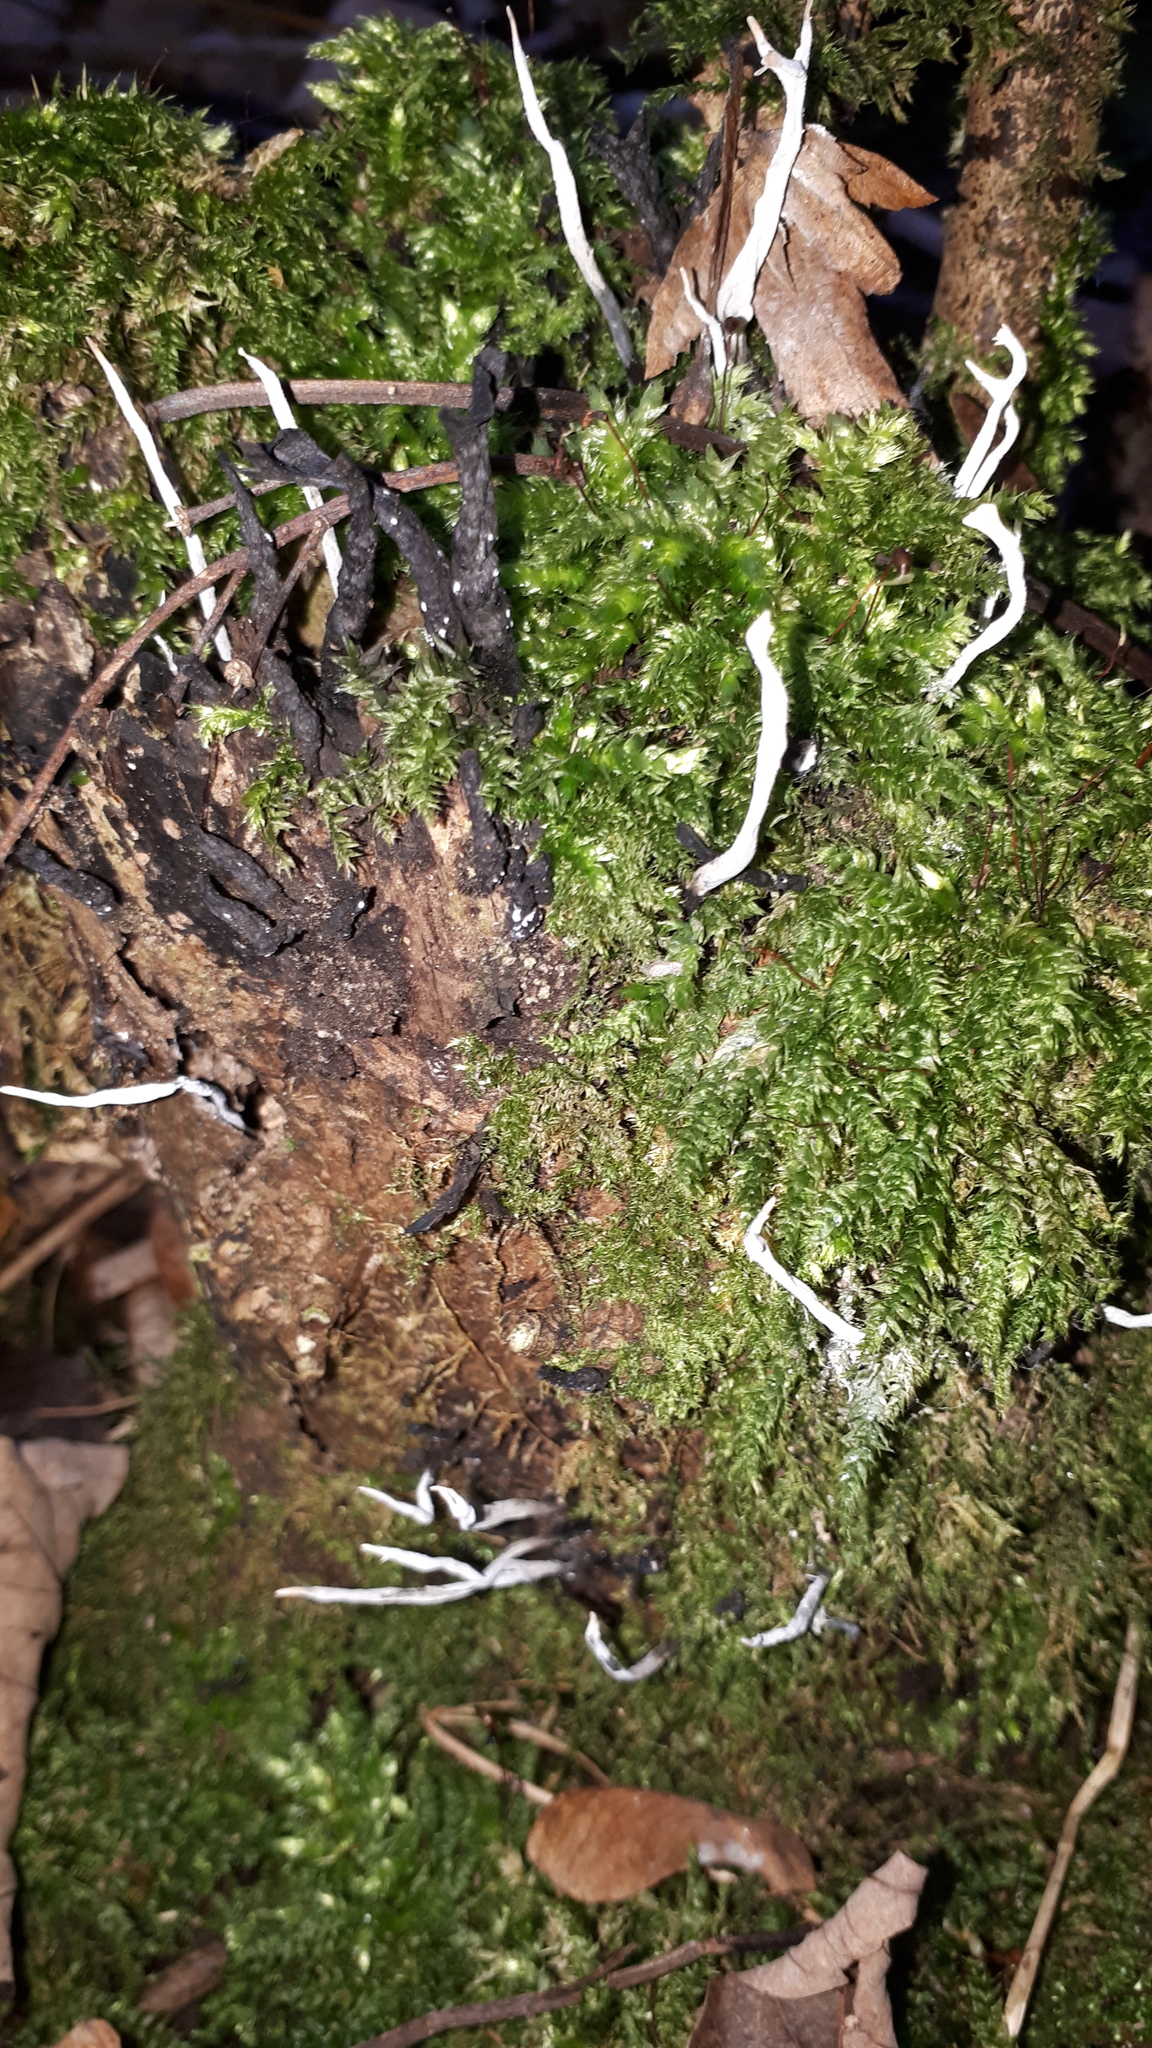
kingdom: Fungi
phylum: Ascomycota
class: Sordariomycetes
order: Xylariales
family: Xylariaceae
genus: Xylaria
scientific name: Xylaria hypoxylon
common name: Candle-snuff fungus
